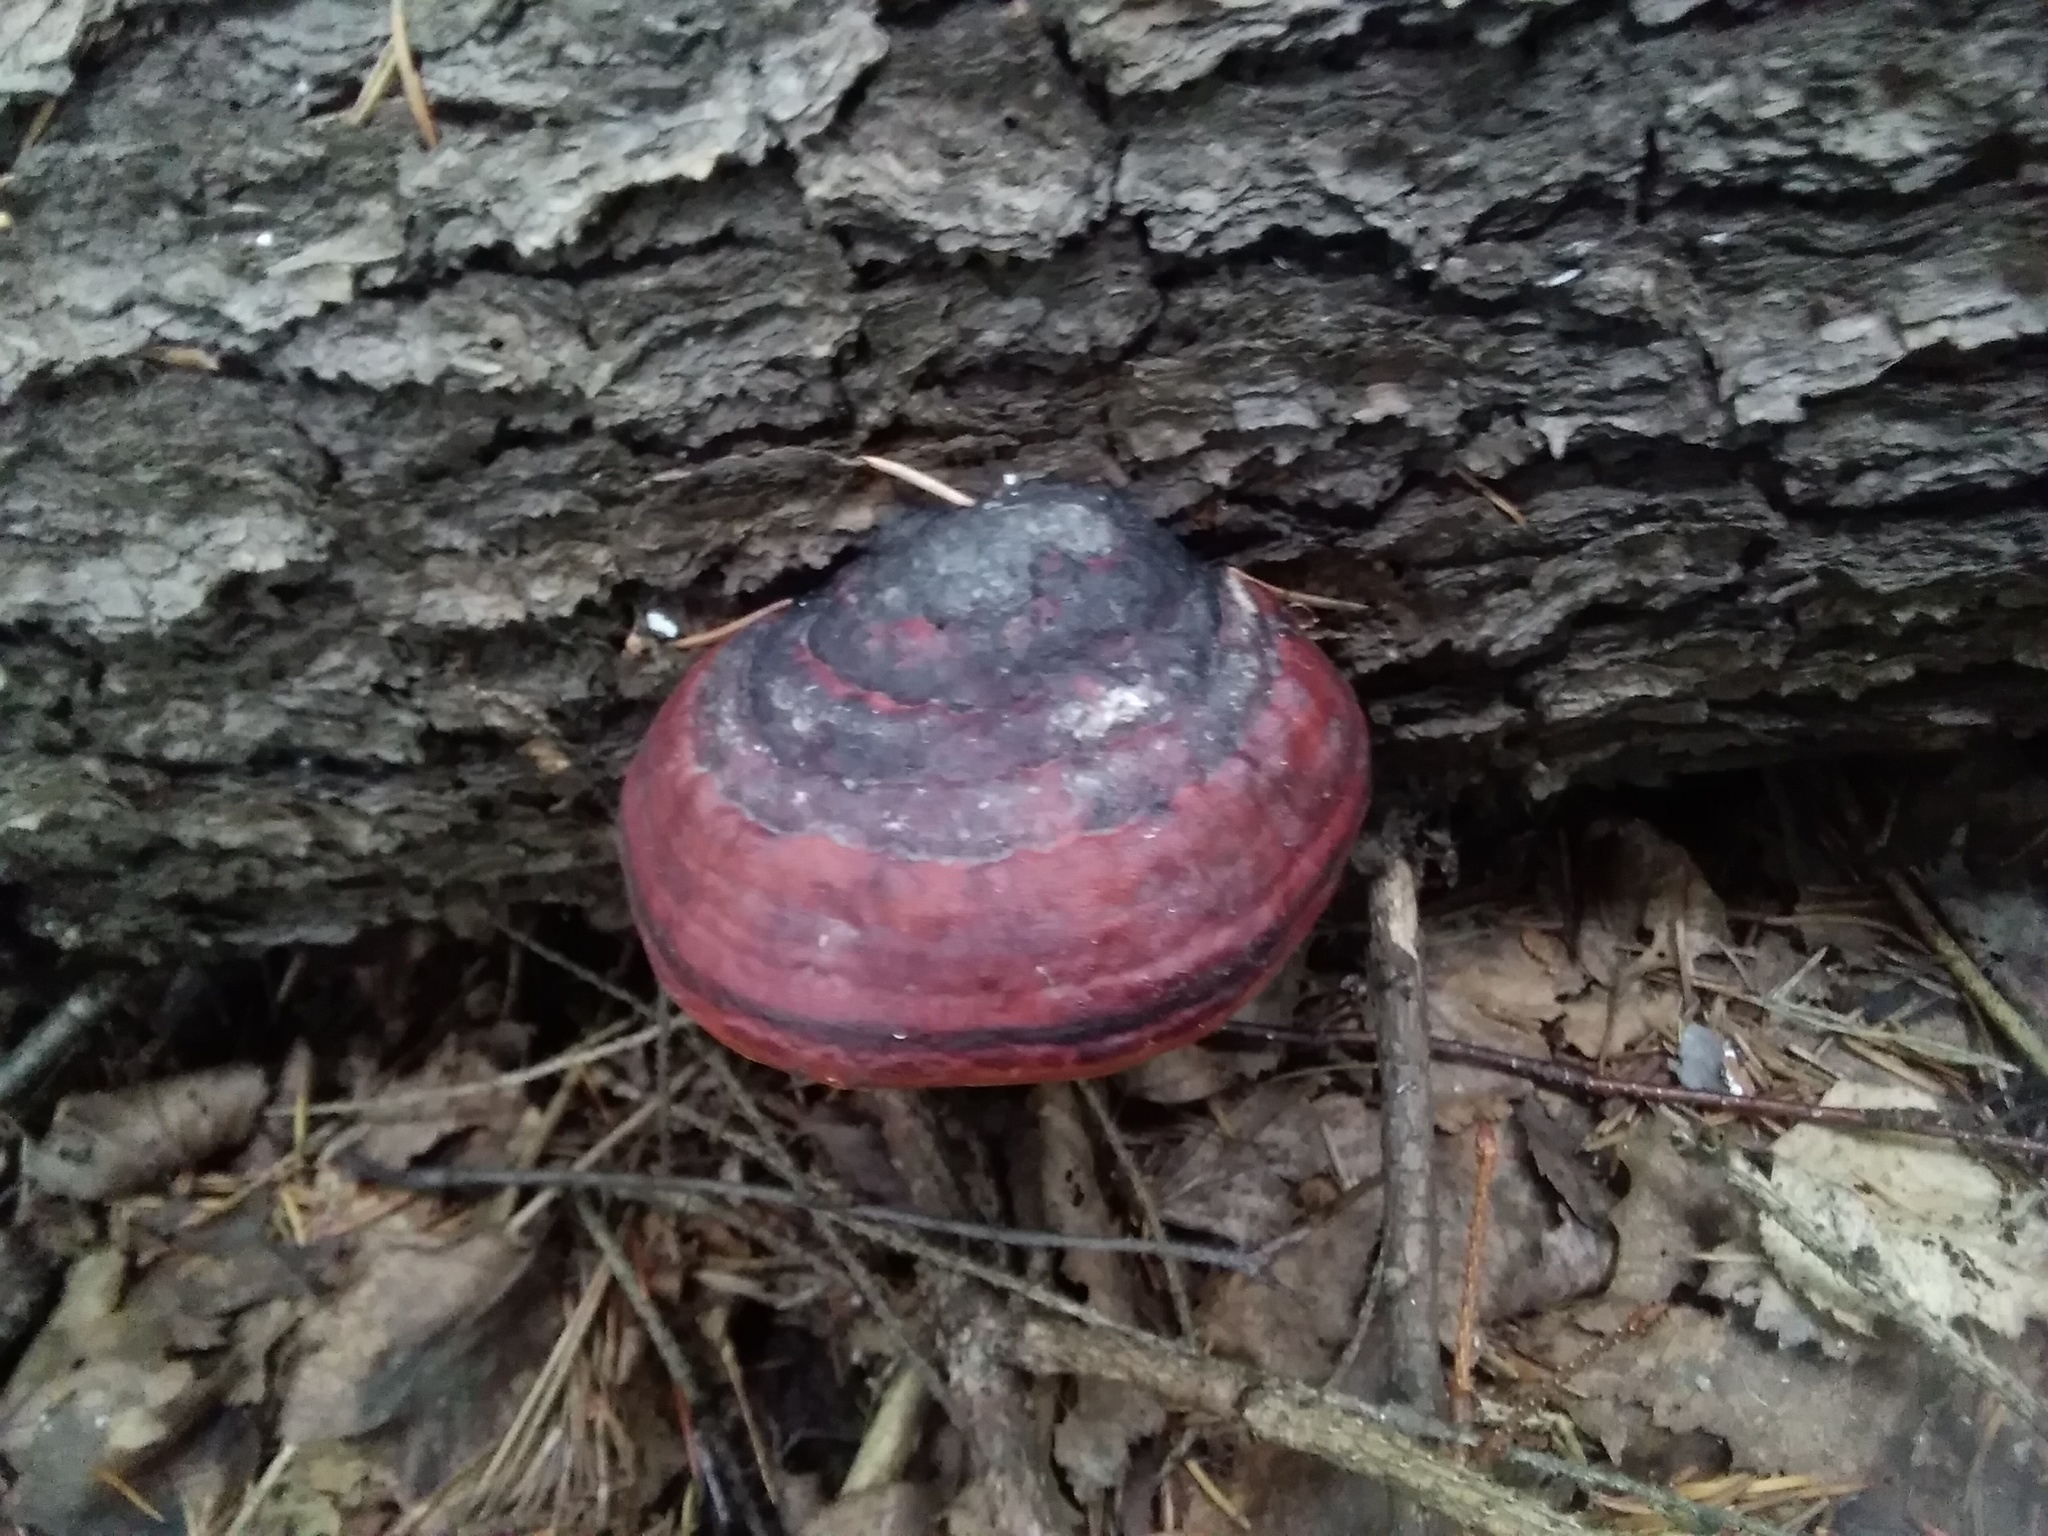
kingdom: Fungi
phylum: Basidiomycota
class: Agaricomycetes
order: Polyporales
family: Fomitopsidaceae
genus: Fomitopsis
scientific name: Fomitopsis pinicola
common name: Red-belted bracket
